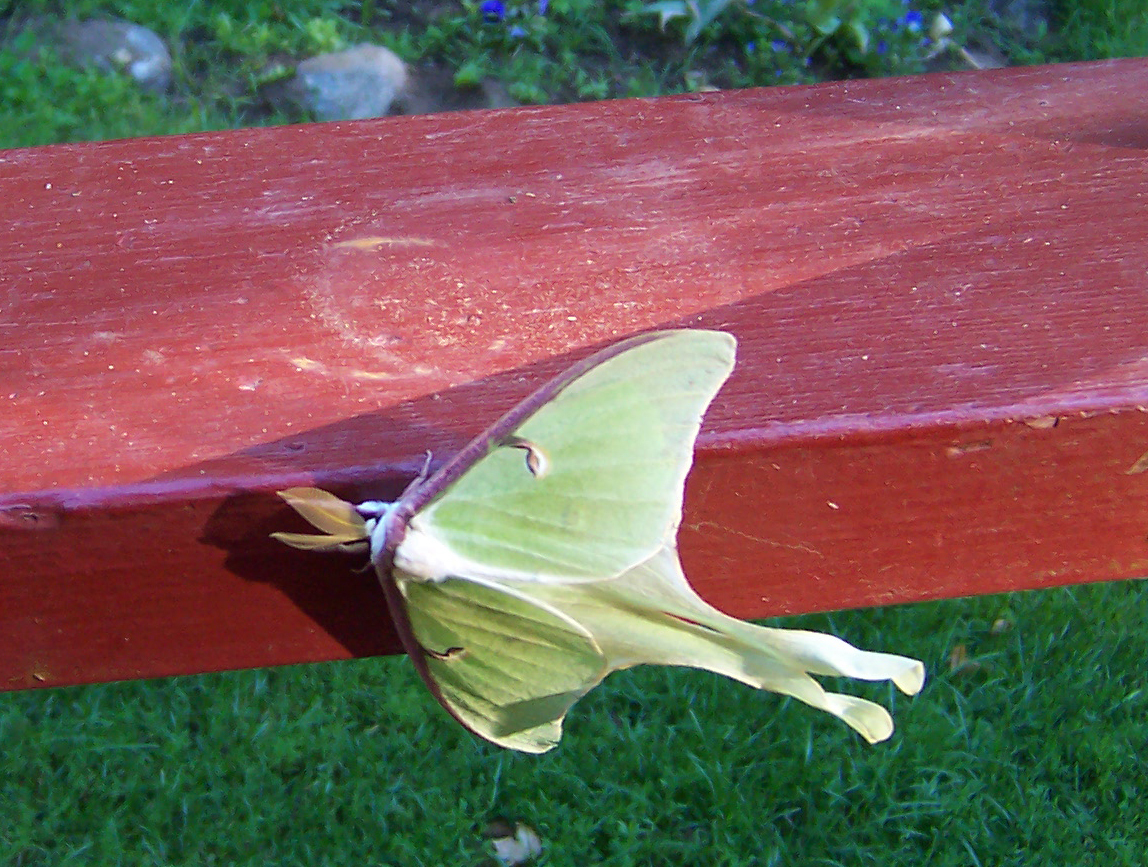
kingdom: Animalia
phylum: Arthropoda
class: Insecta
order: Lepidoptera
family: Saturniidae
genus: Actias
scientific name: Actias luna
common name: Luna moth
